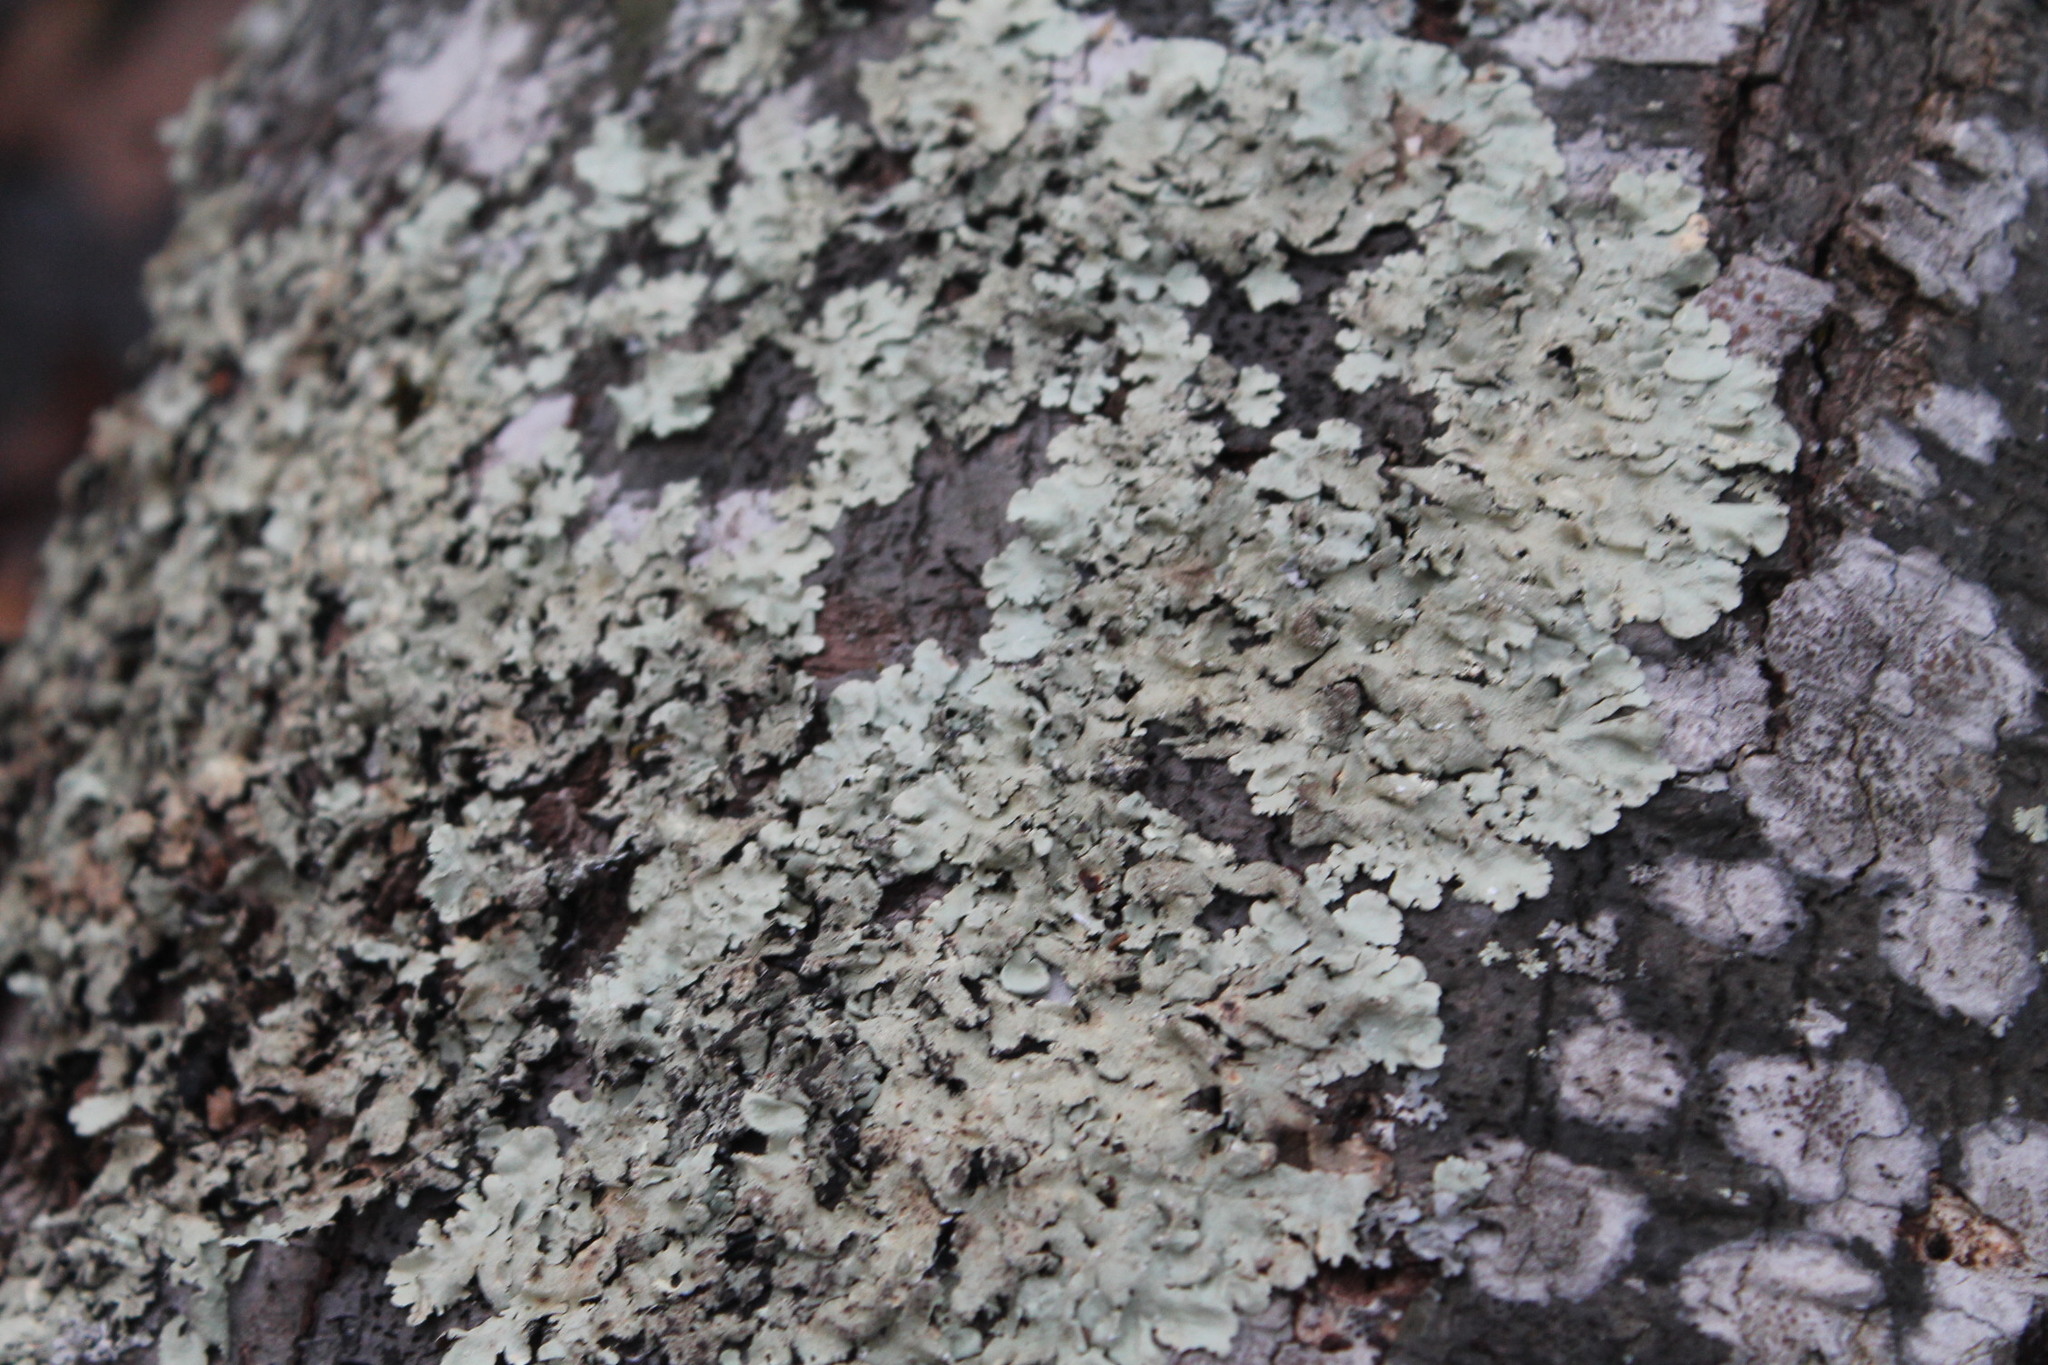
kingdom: Fungi
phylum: Ascomycota
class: Lecanoromycetes
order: Lecanorales
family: Parmeliaceae
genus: Flavoparmelia
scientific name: Flavoparmelia caperata
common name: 40-mile per hour lichen
